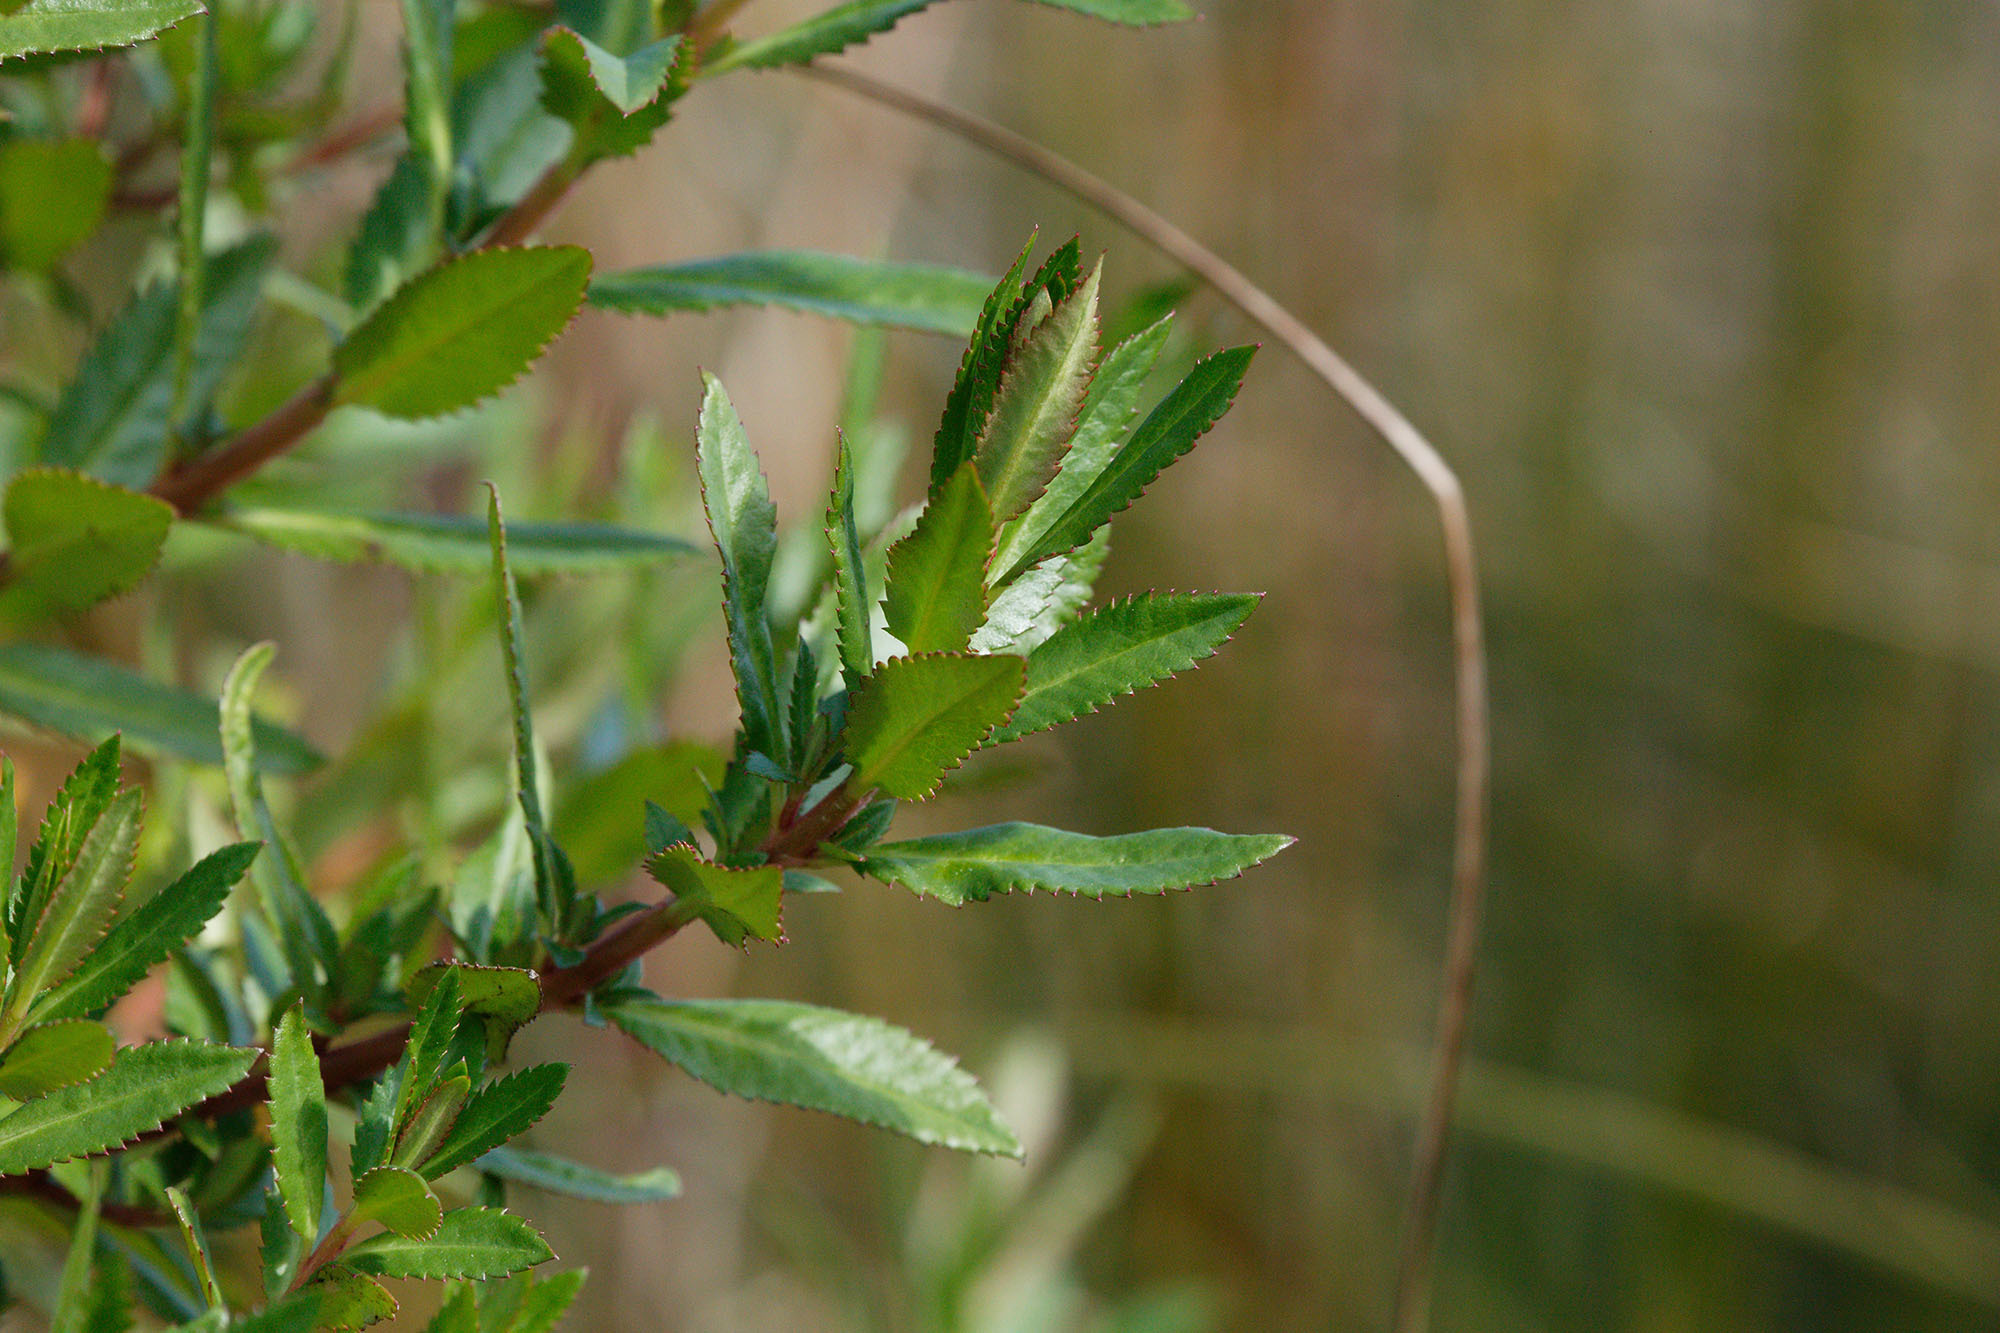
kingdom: Plantae
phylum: Tracheophyta
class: Magnoliopsida
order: Saxifragales
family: Haloragaceae
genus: Haloragis
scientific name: Haloragis erecta
